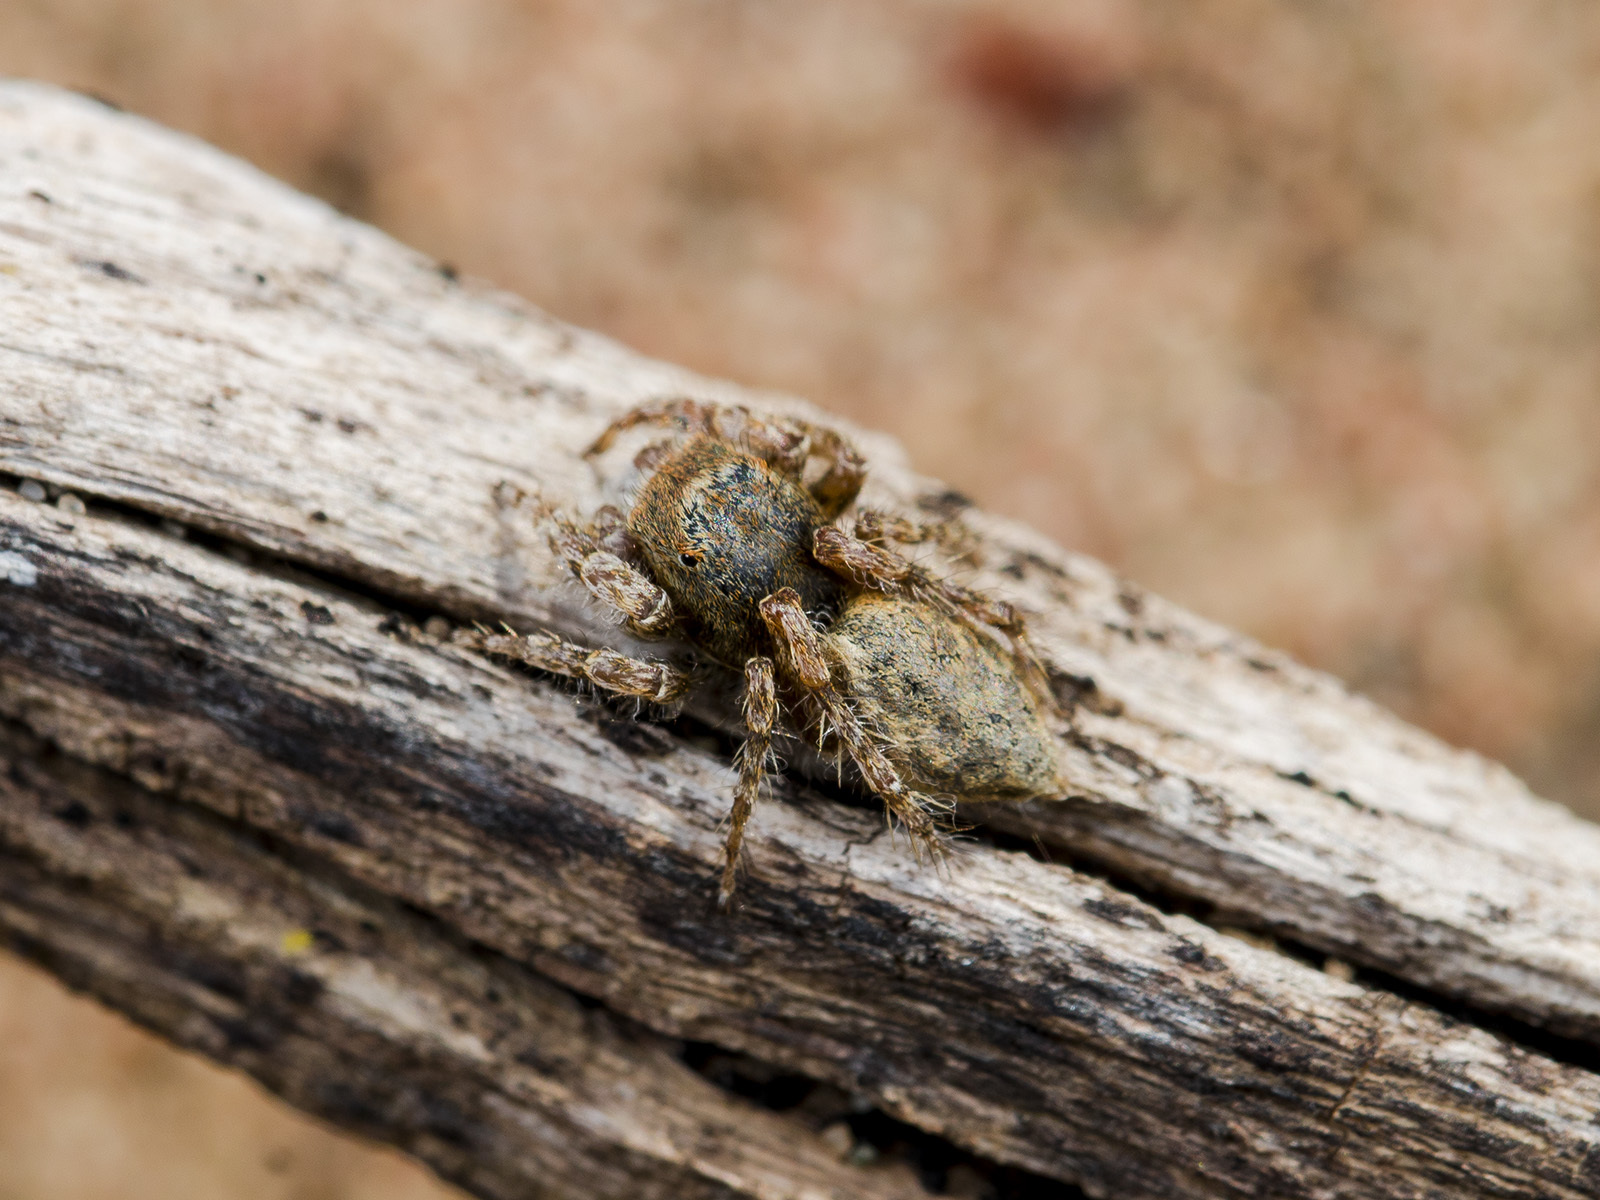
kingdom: Animalia
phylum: Arthropoda
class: Arachnida
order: Araneae
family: Salticidae
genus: Yllenus
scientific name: Yllenus uiguricus
